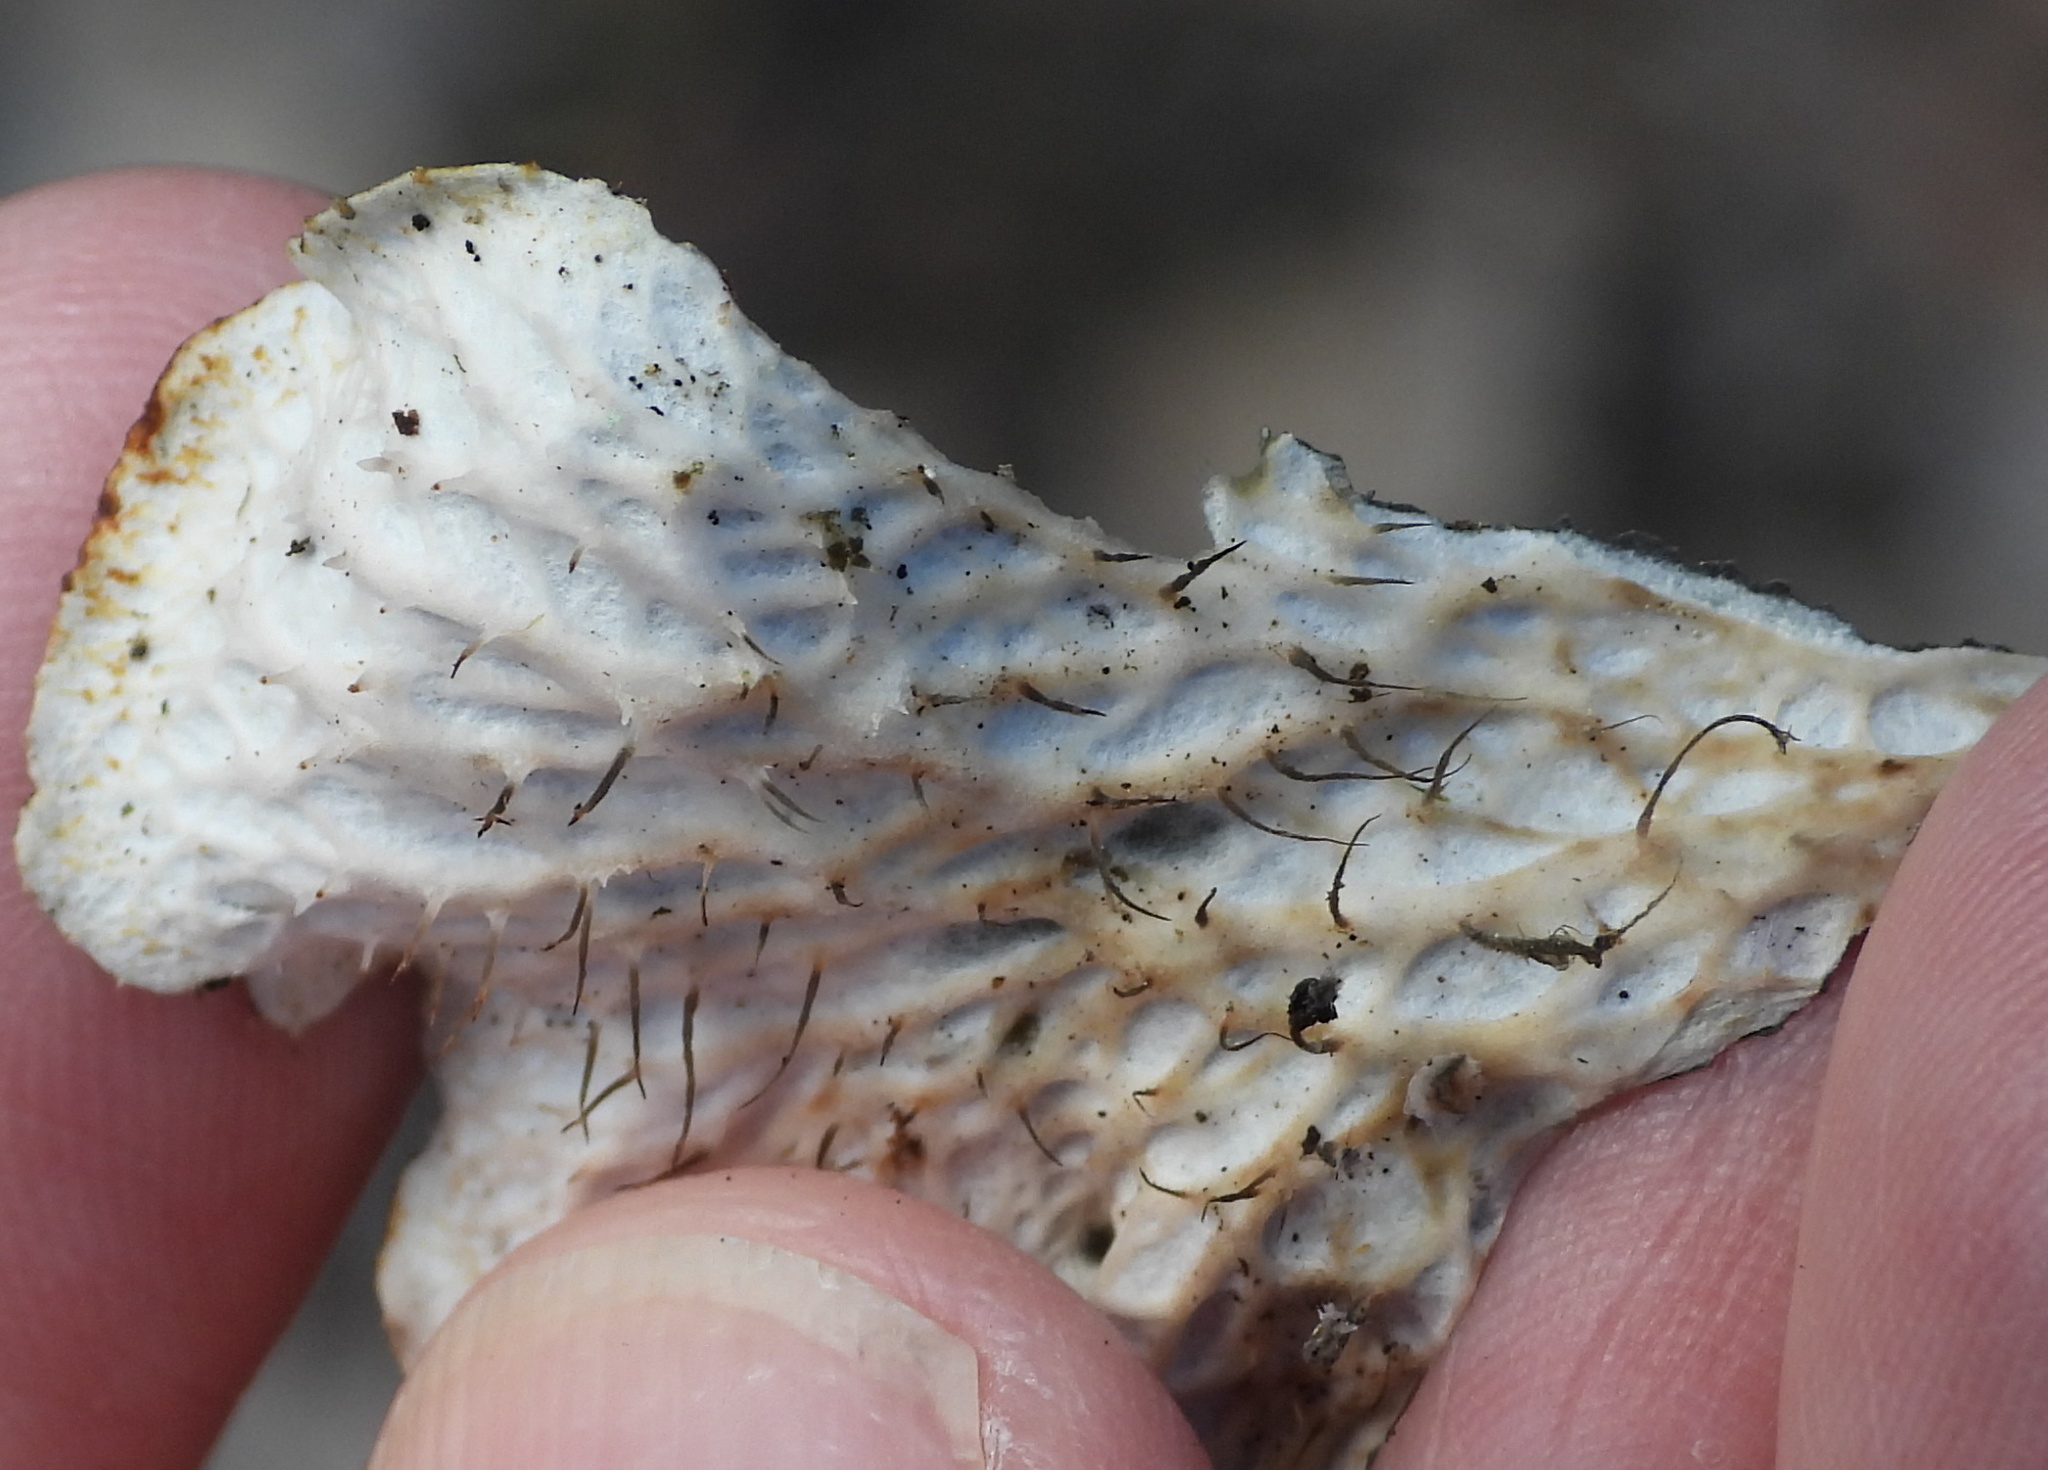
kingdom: Fungi
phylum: Ascomycota
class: Lecanoromycetes
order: Peltigerales
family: Peltigeraceae
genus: Peltigera
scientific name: Peltigera praetextata
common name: Scaly dog-lichen
